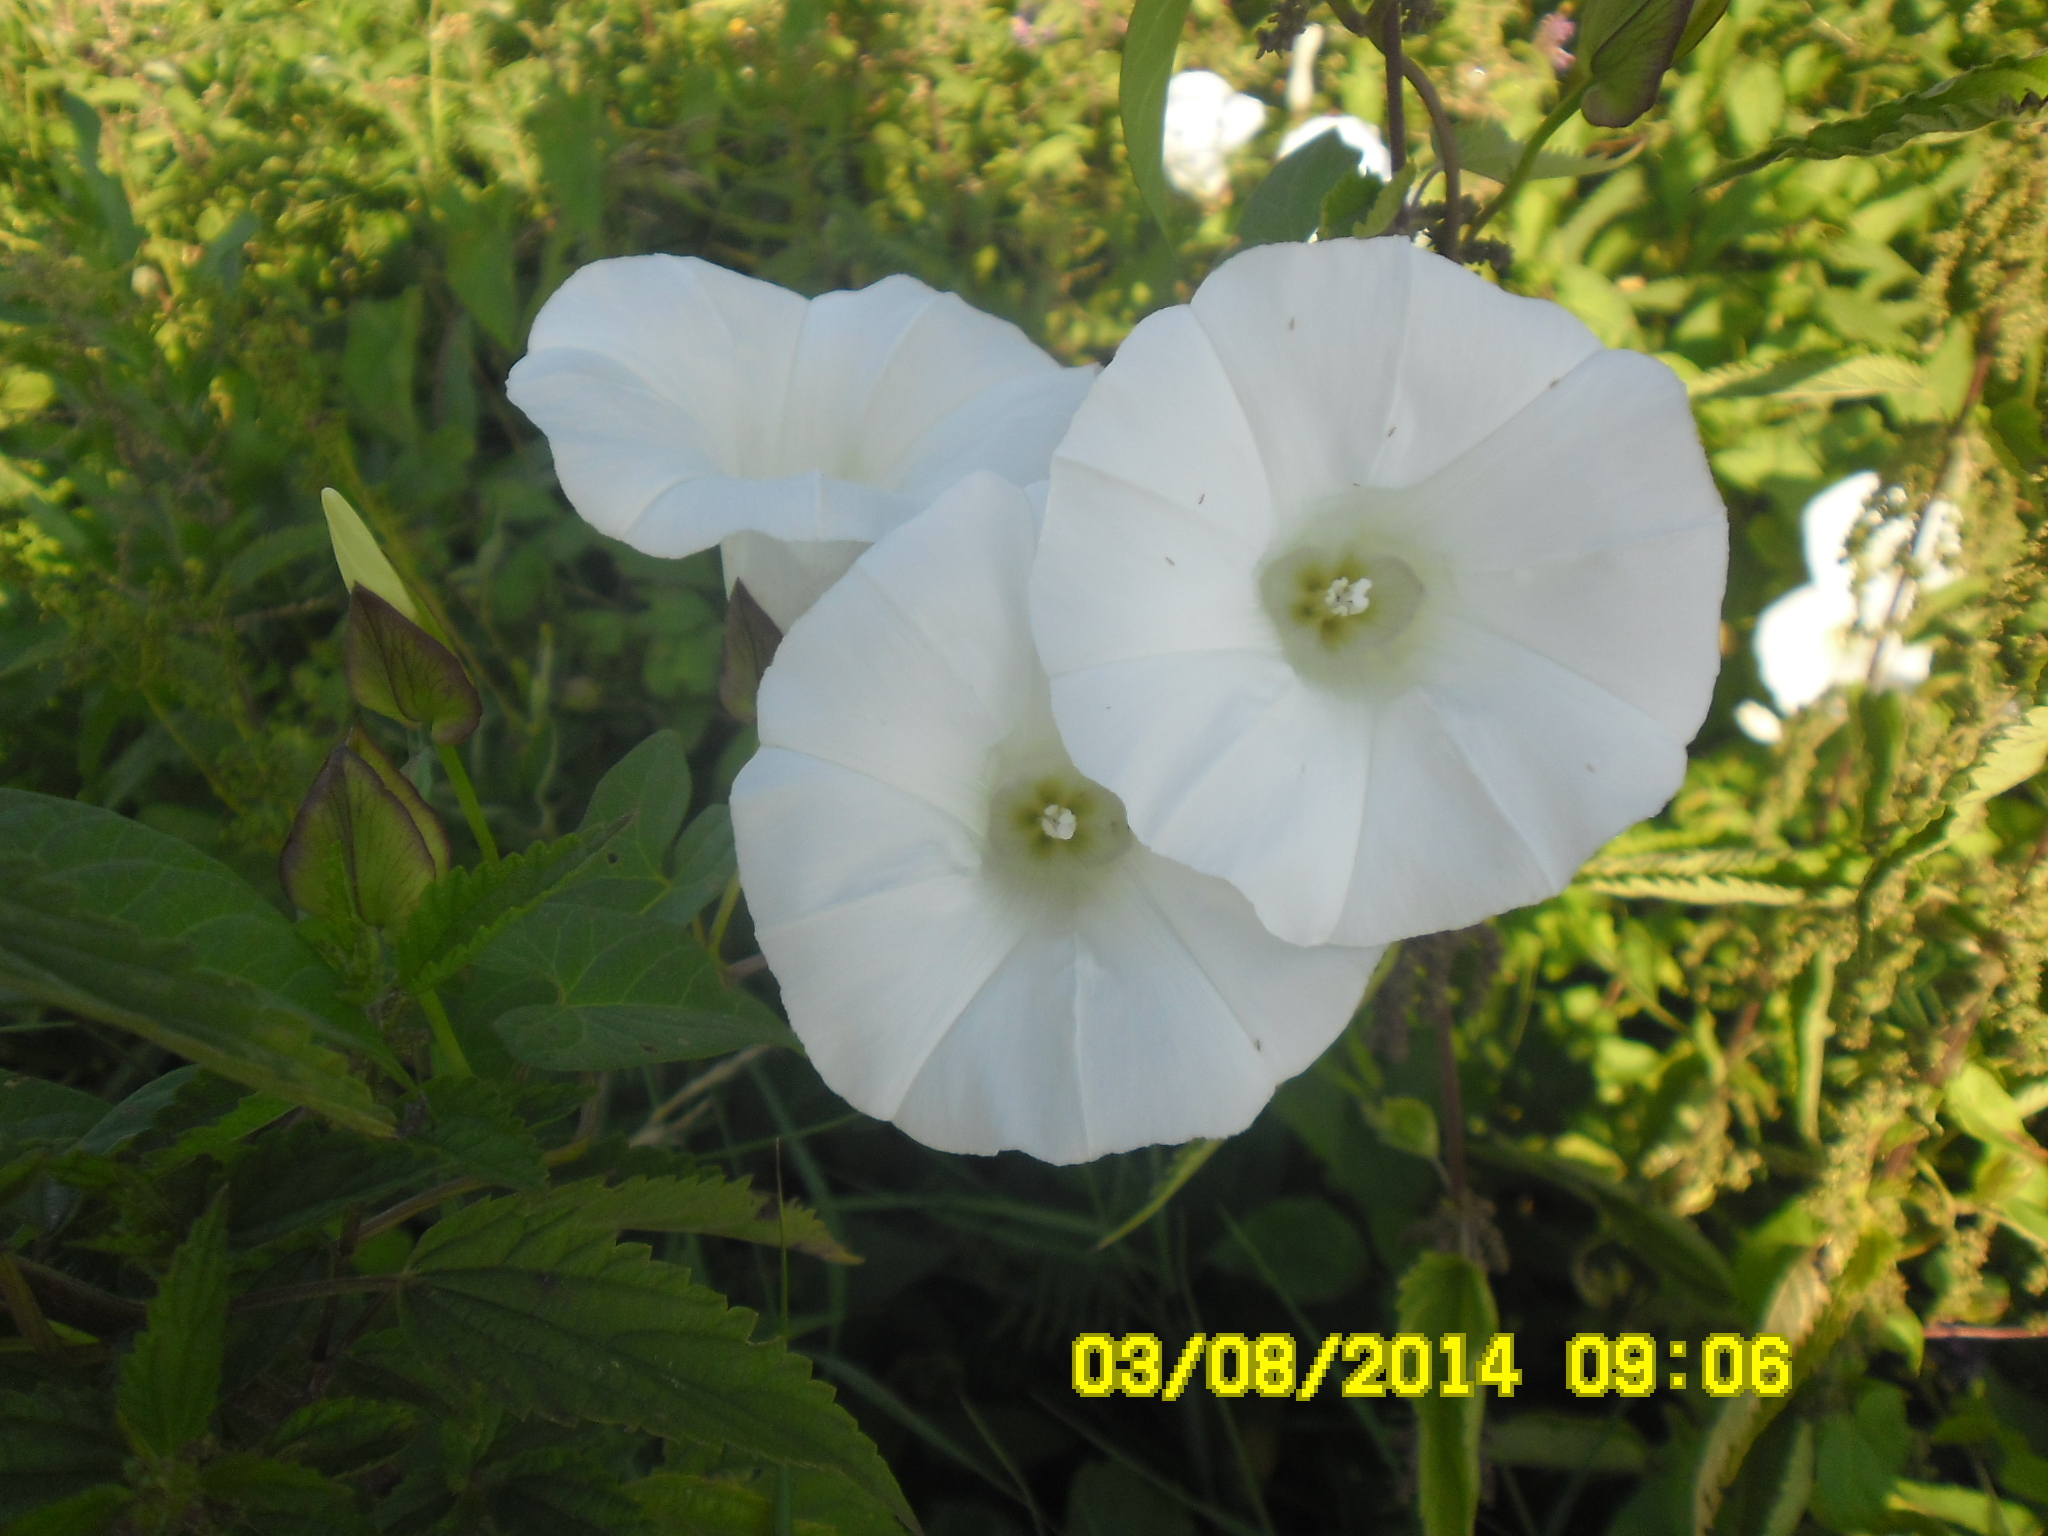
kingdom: Plantae
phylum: Tracheophyta
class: Magnoliopsida
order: Solanales
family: Convolvulaceae
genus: Calystegia
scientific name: Calystegia sepium
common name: Hedge bindweed
